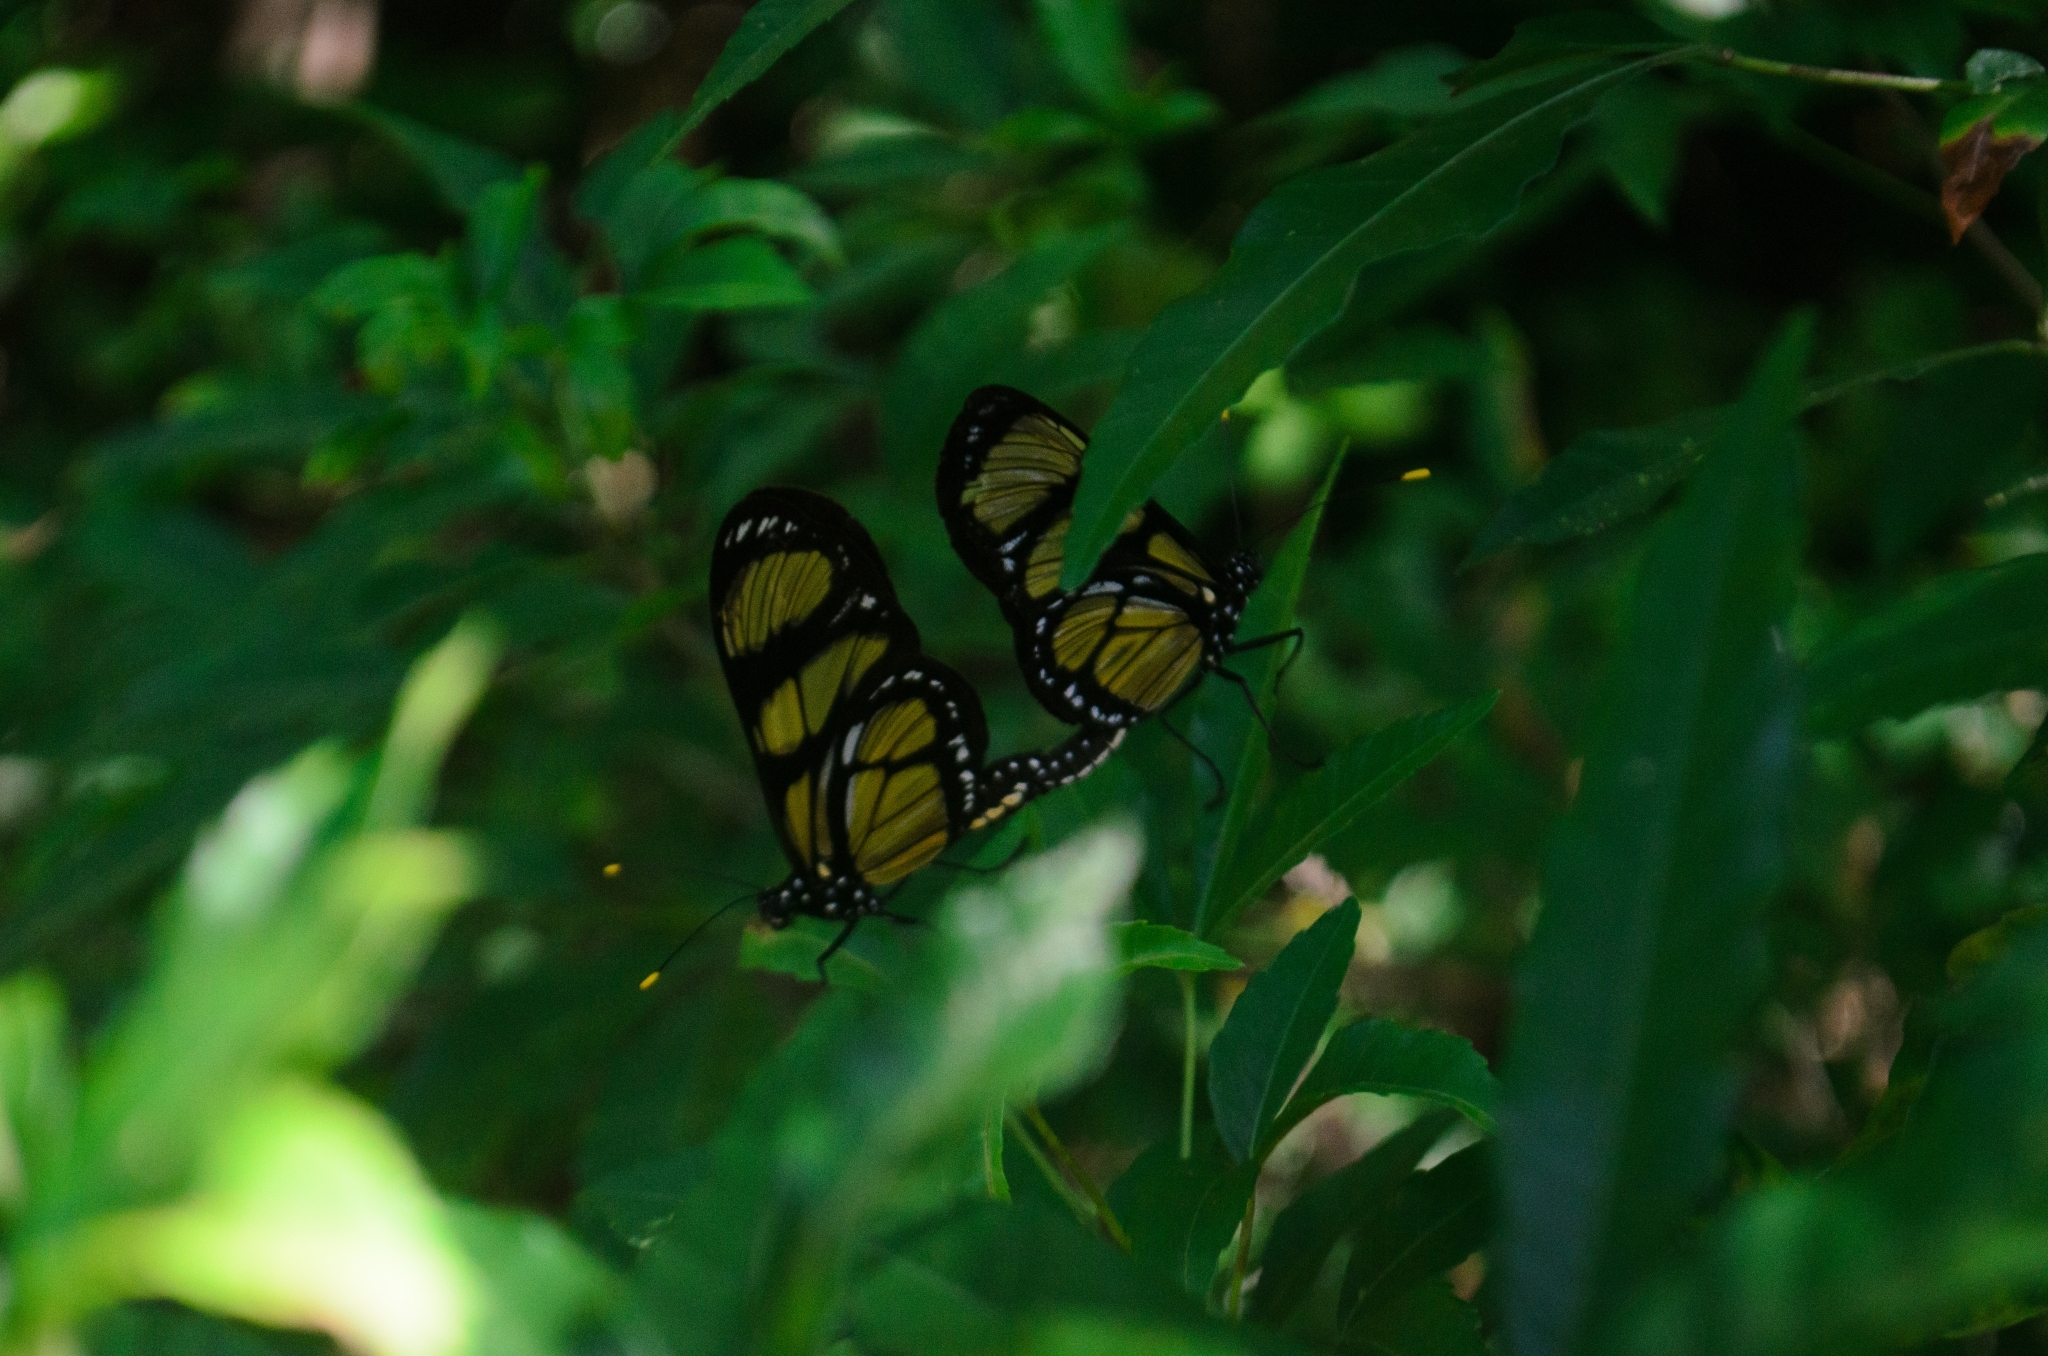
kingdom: Animalia
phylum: Arthropoda
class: Insecta
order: Lepidoptera
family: Nymphalidae
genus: Methona
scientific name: Methona themisto
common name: Themisto amberwing
